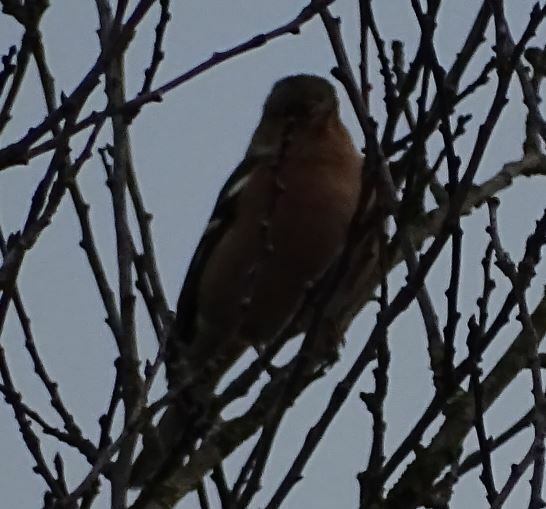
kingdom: Animalia
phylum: Chordata
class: Aves
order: Passeriformes
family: Fringillidae
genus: Fringilla
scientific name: Fringilla coelebs
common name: Common chaffinch
